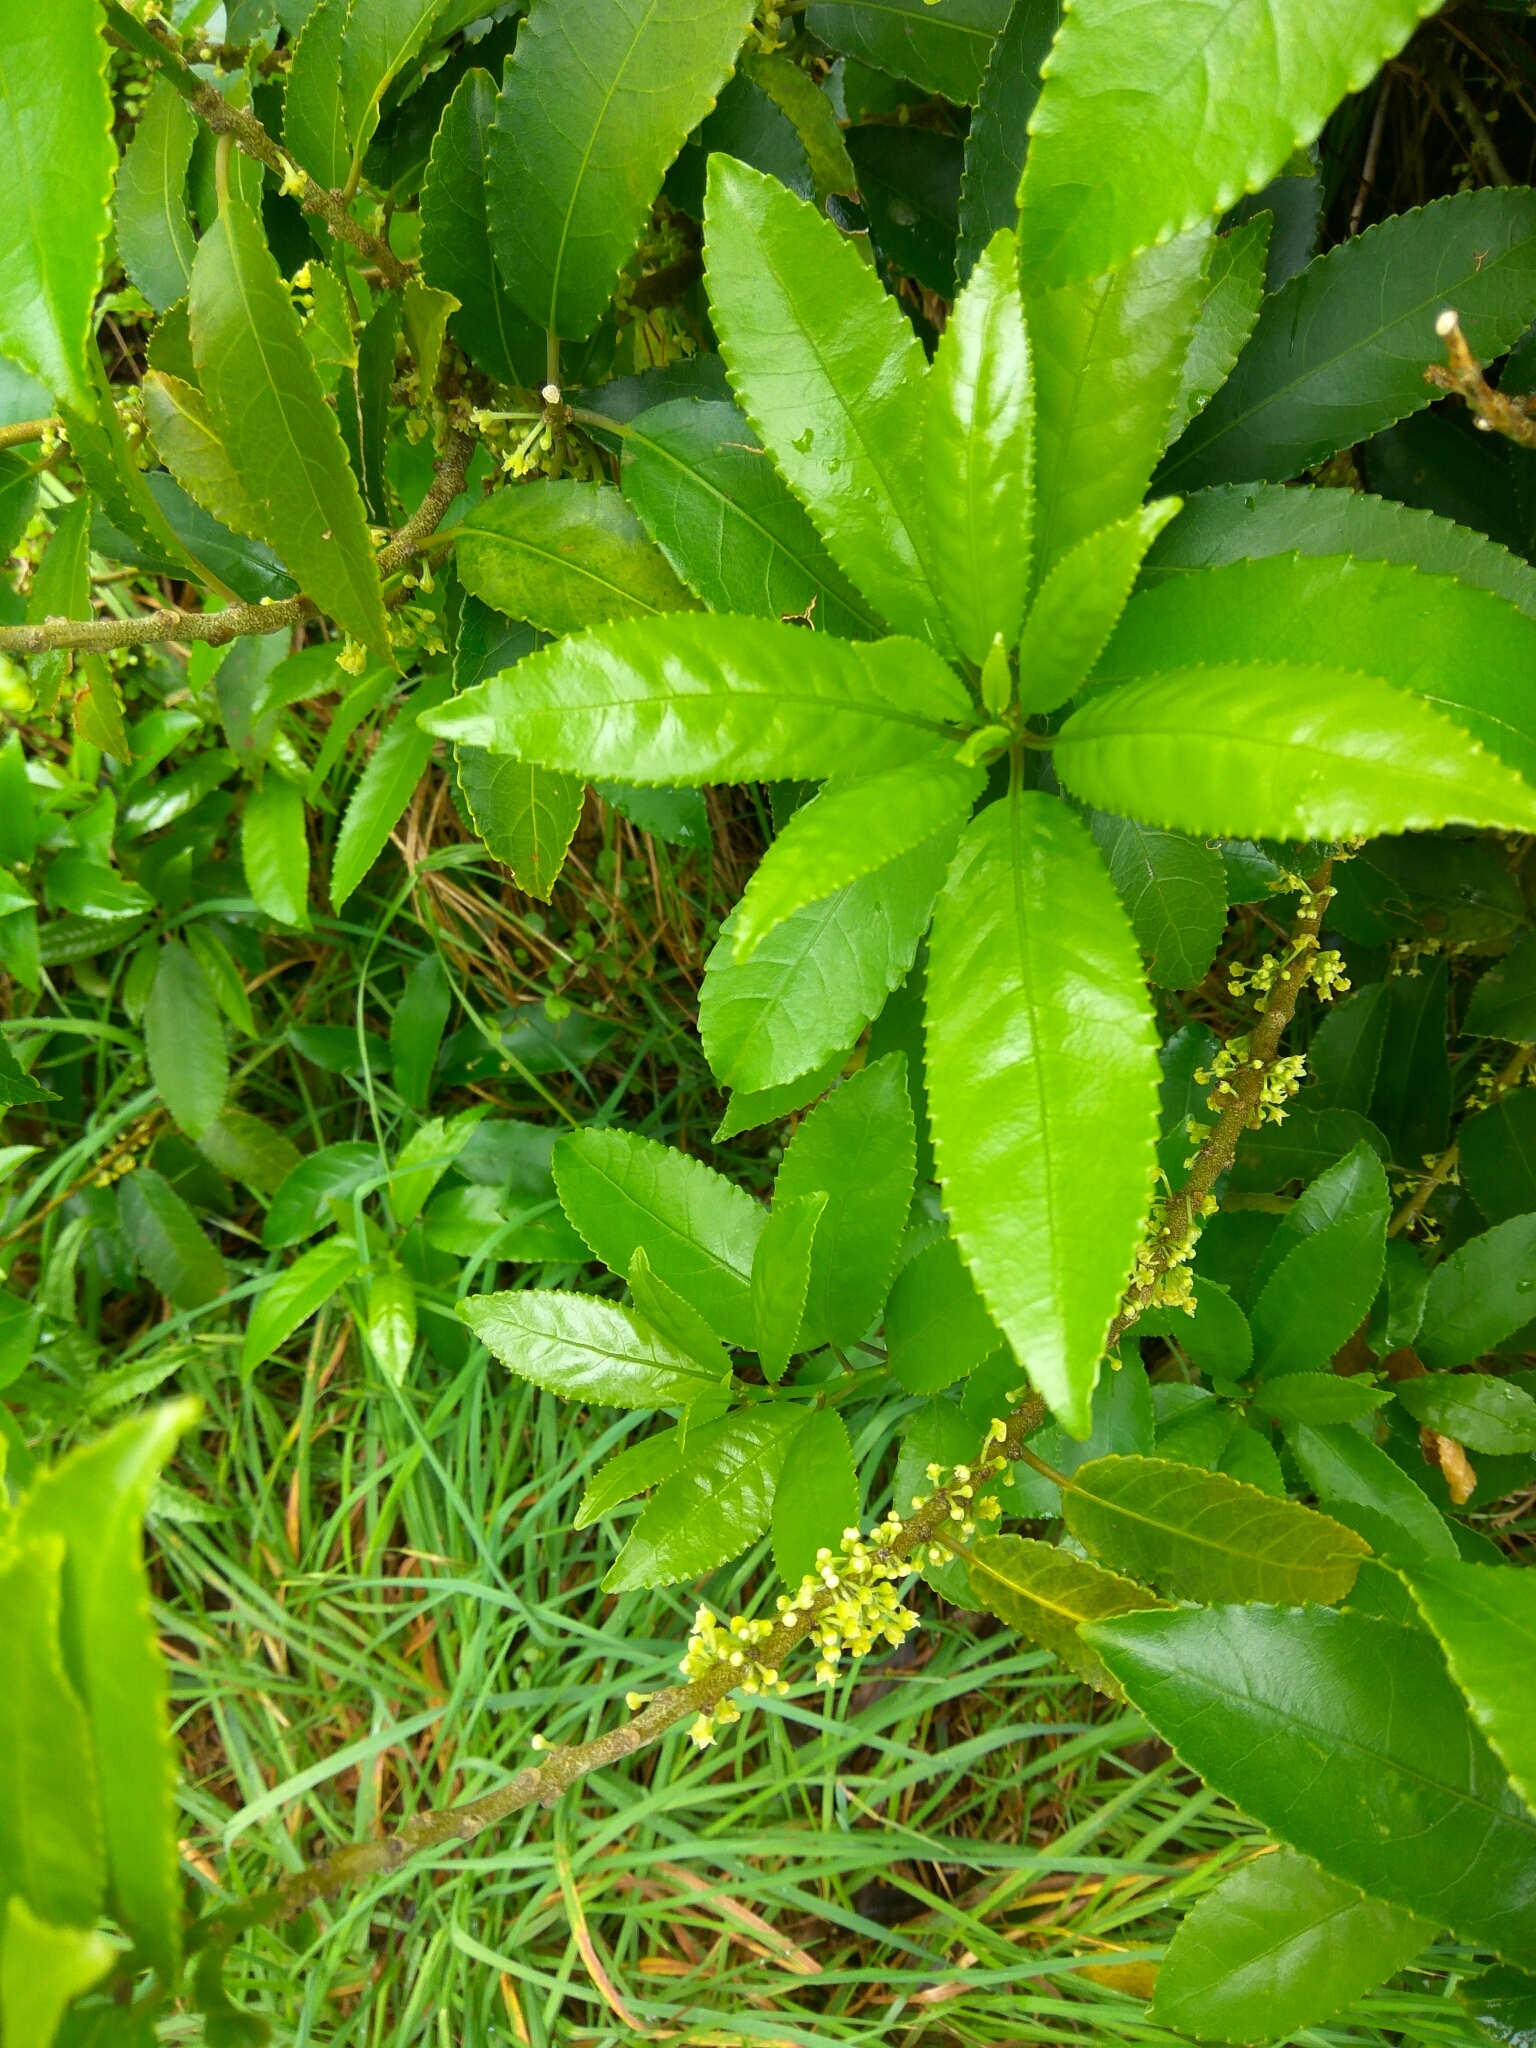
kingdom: Plantae
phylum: Tracheophyta
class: Magnoliopsida
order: Malpighiales
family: Violaceae
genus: Melicytus
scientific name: Melicytus ramiflorus
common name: Mahoe
